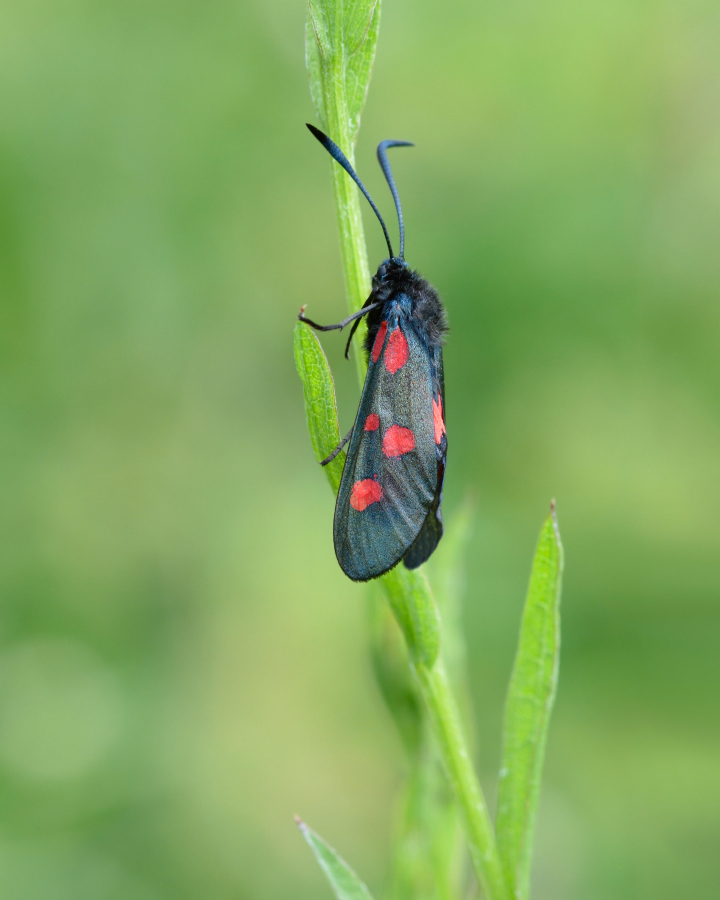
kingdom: Animalia
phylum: Arthropoda
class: Insecta
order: Lepidoptera
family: Zygaenidae
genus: Zygaena
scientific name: Zygaena lonicerae
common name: Narrow-bordered five-spot burnet
